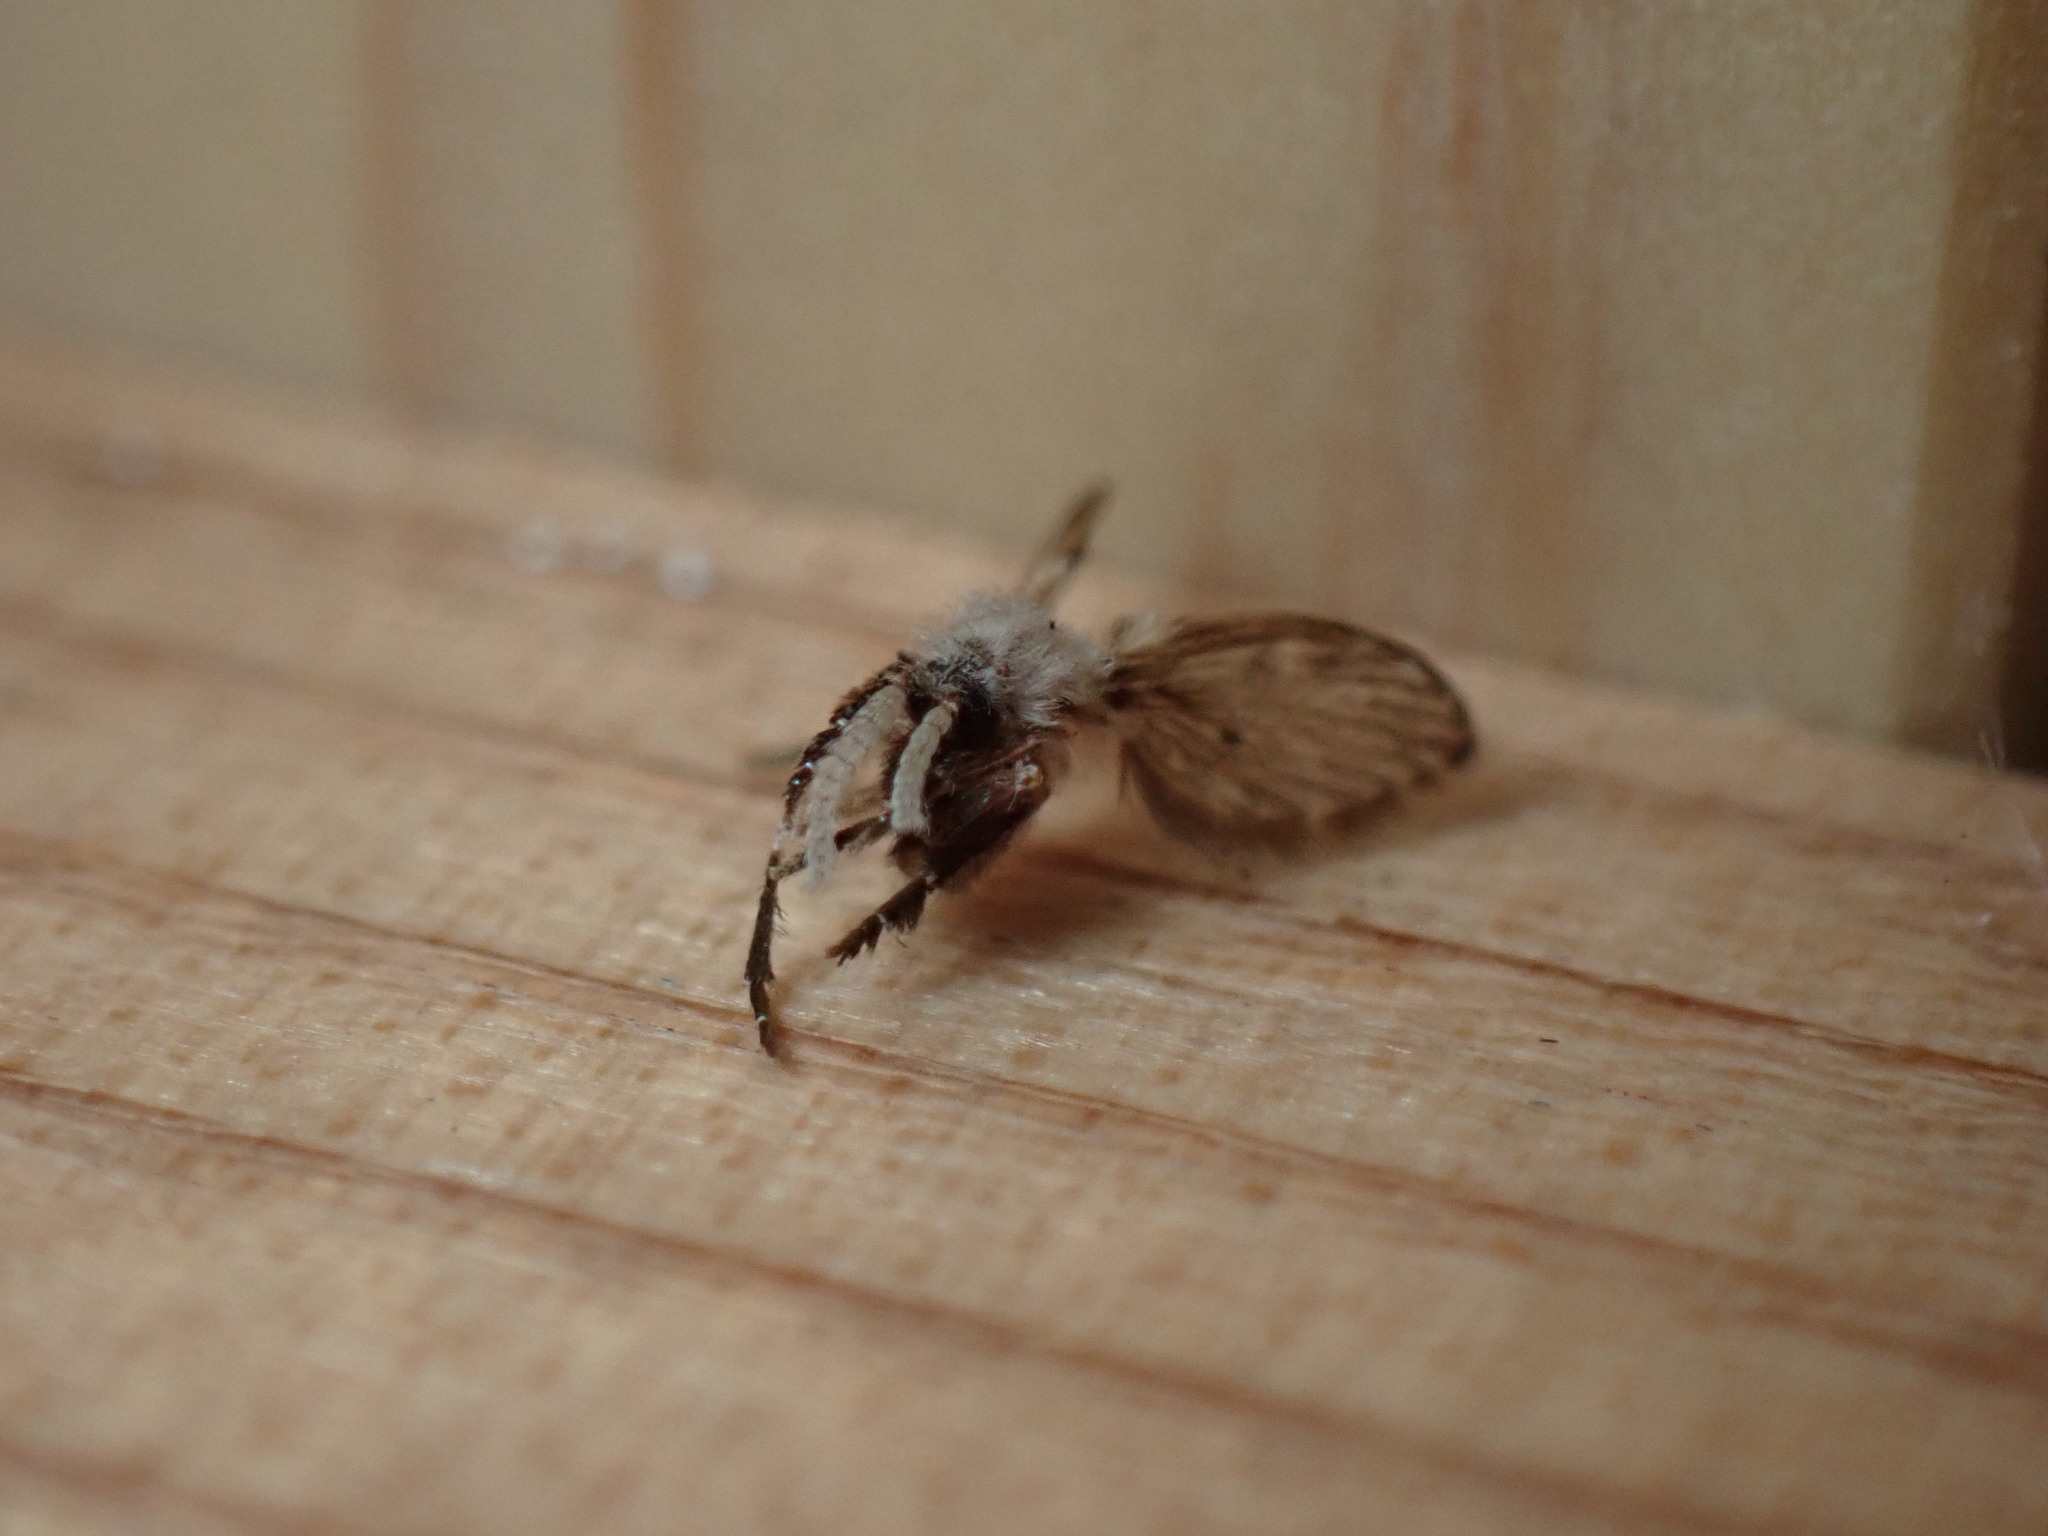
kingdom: Animalia
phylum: Arthropoda
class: Insecta
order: Diptera
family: Psychodidae
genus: Clogmia
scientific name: Clogmia albipunctatus
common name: White-spotted moth fly
